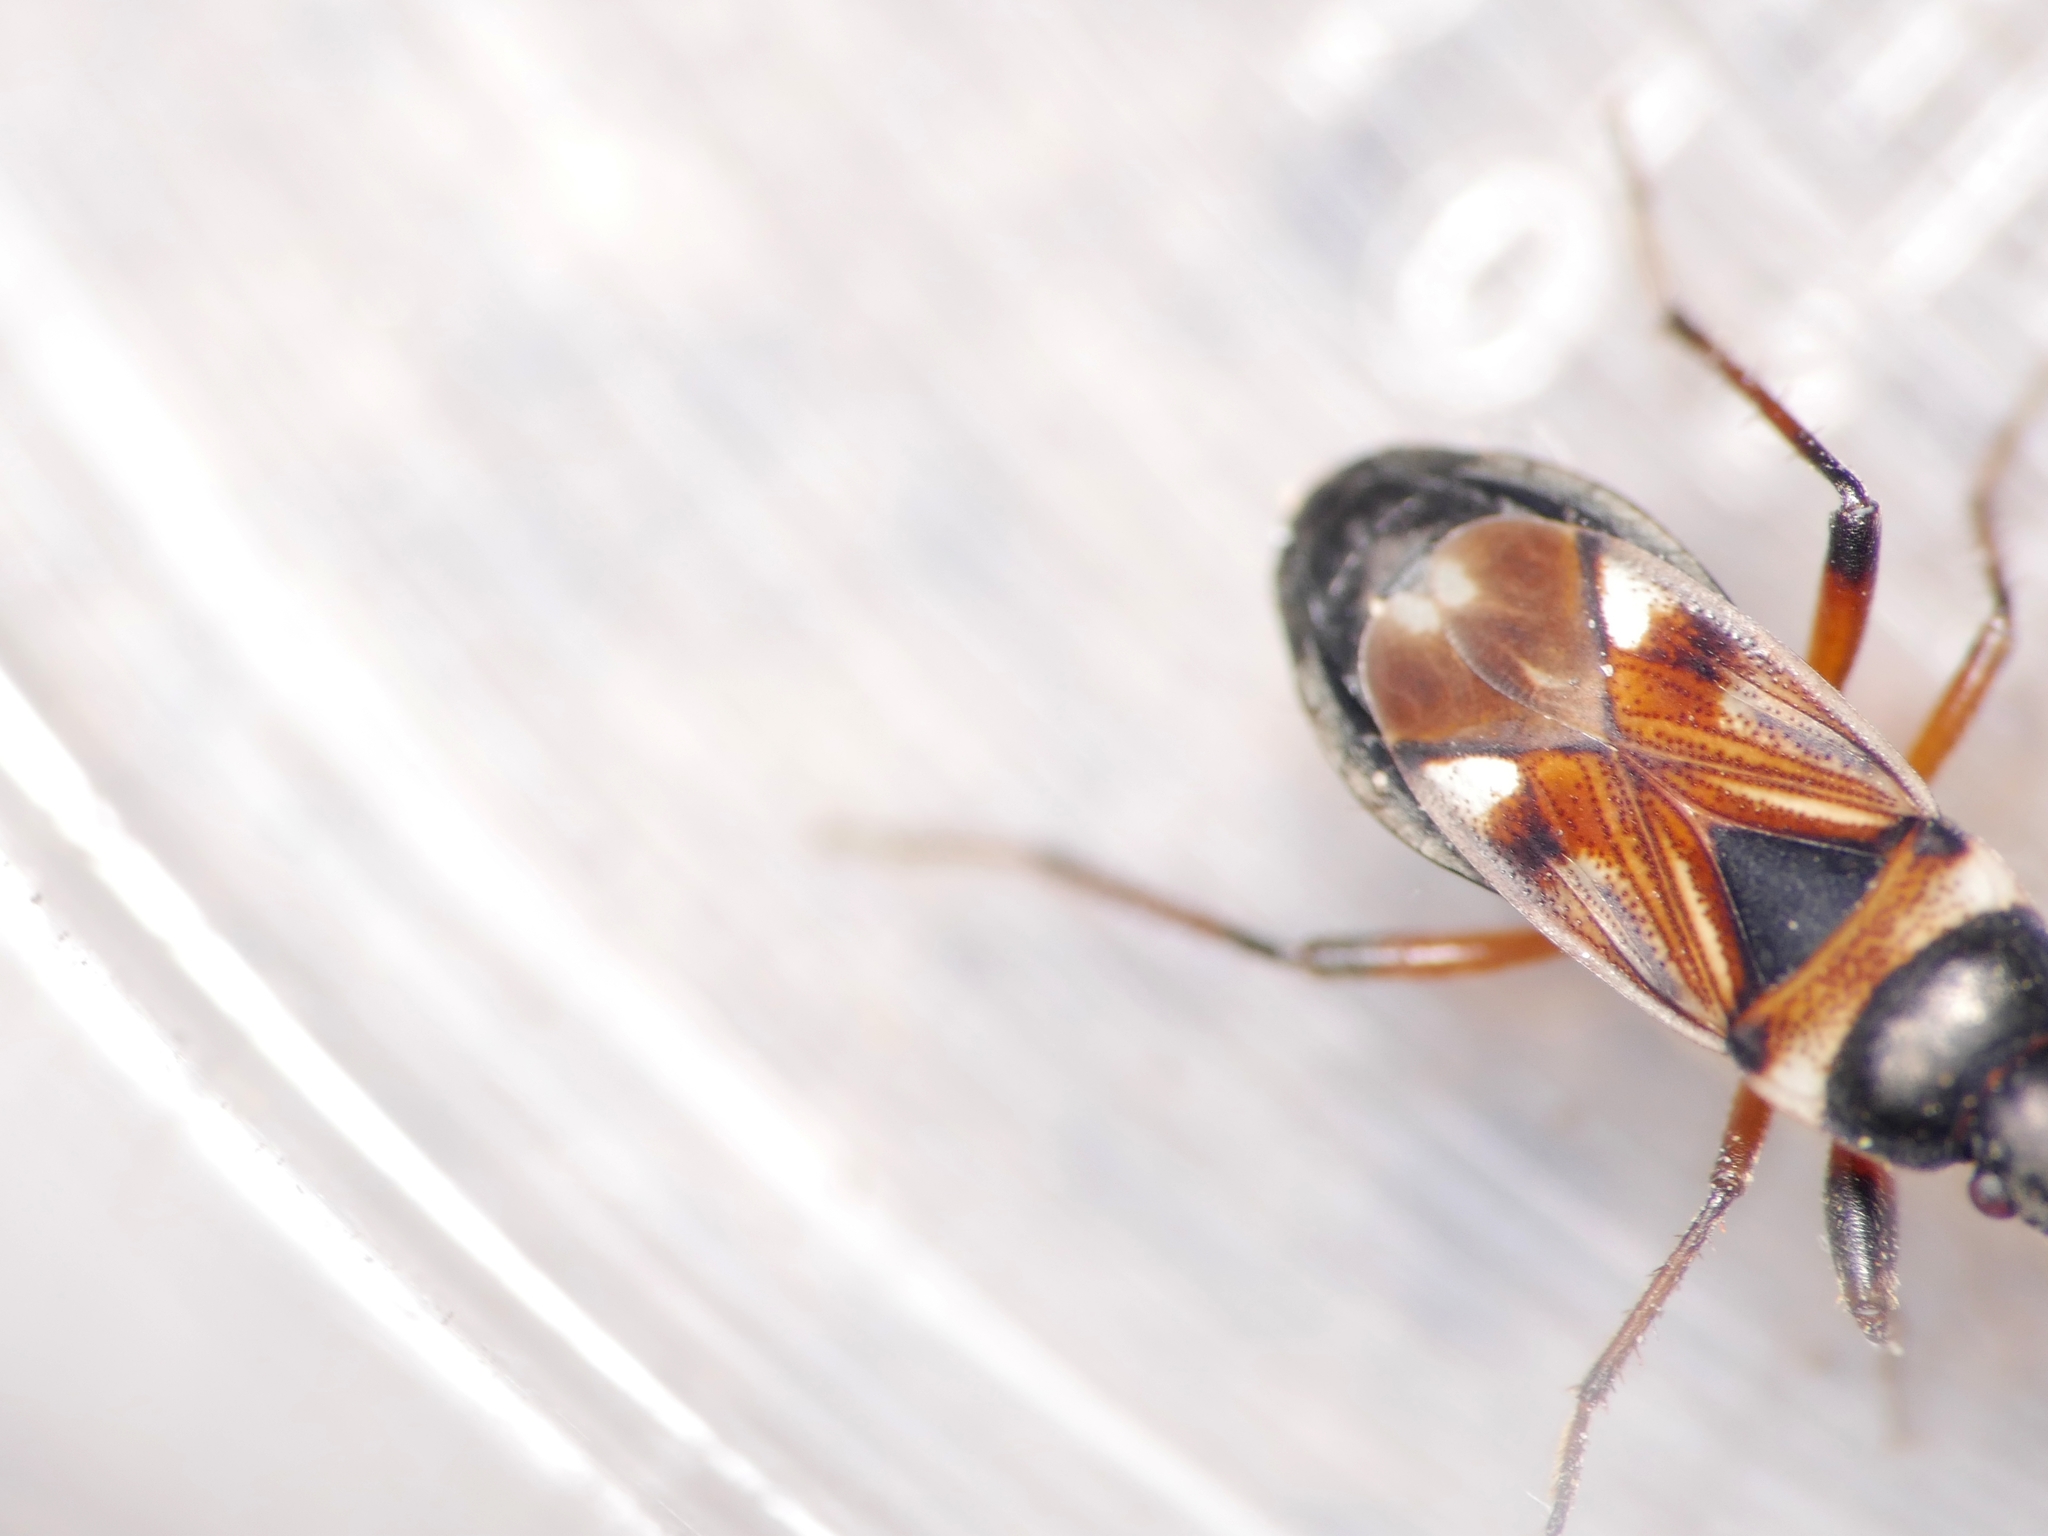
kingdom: Animalia
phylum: Arthropoda
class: Insecta
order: Hemiptera
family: Rhyparochromidae
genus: Raglius
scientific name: Raglius alboacuminatus
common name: Dirt-colored seed bug
